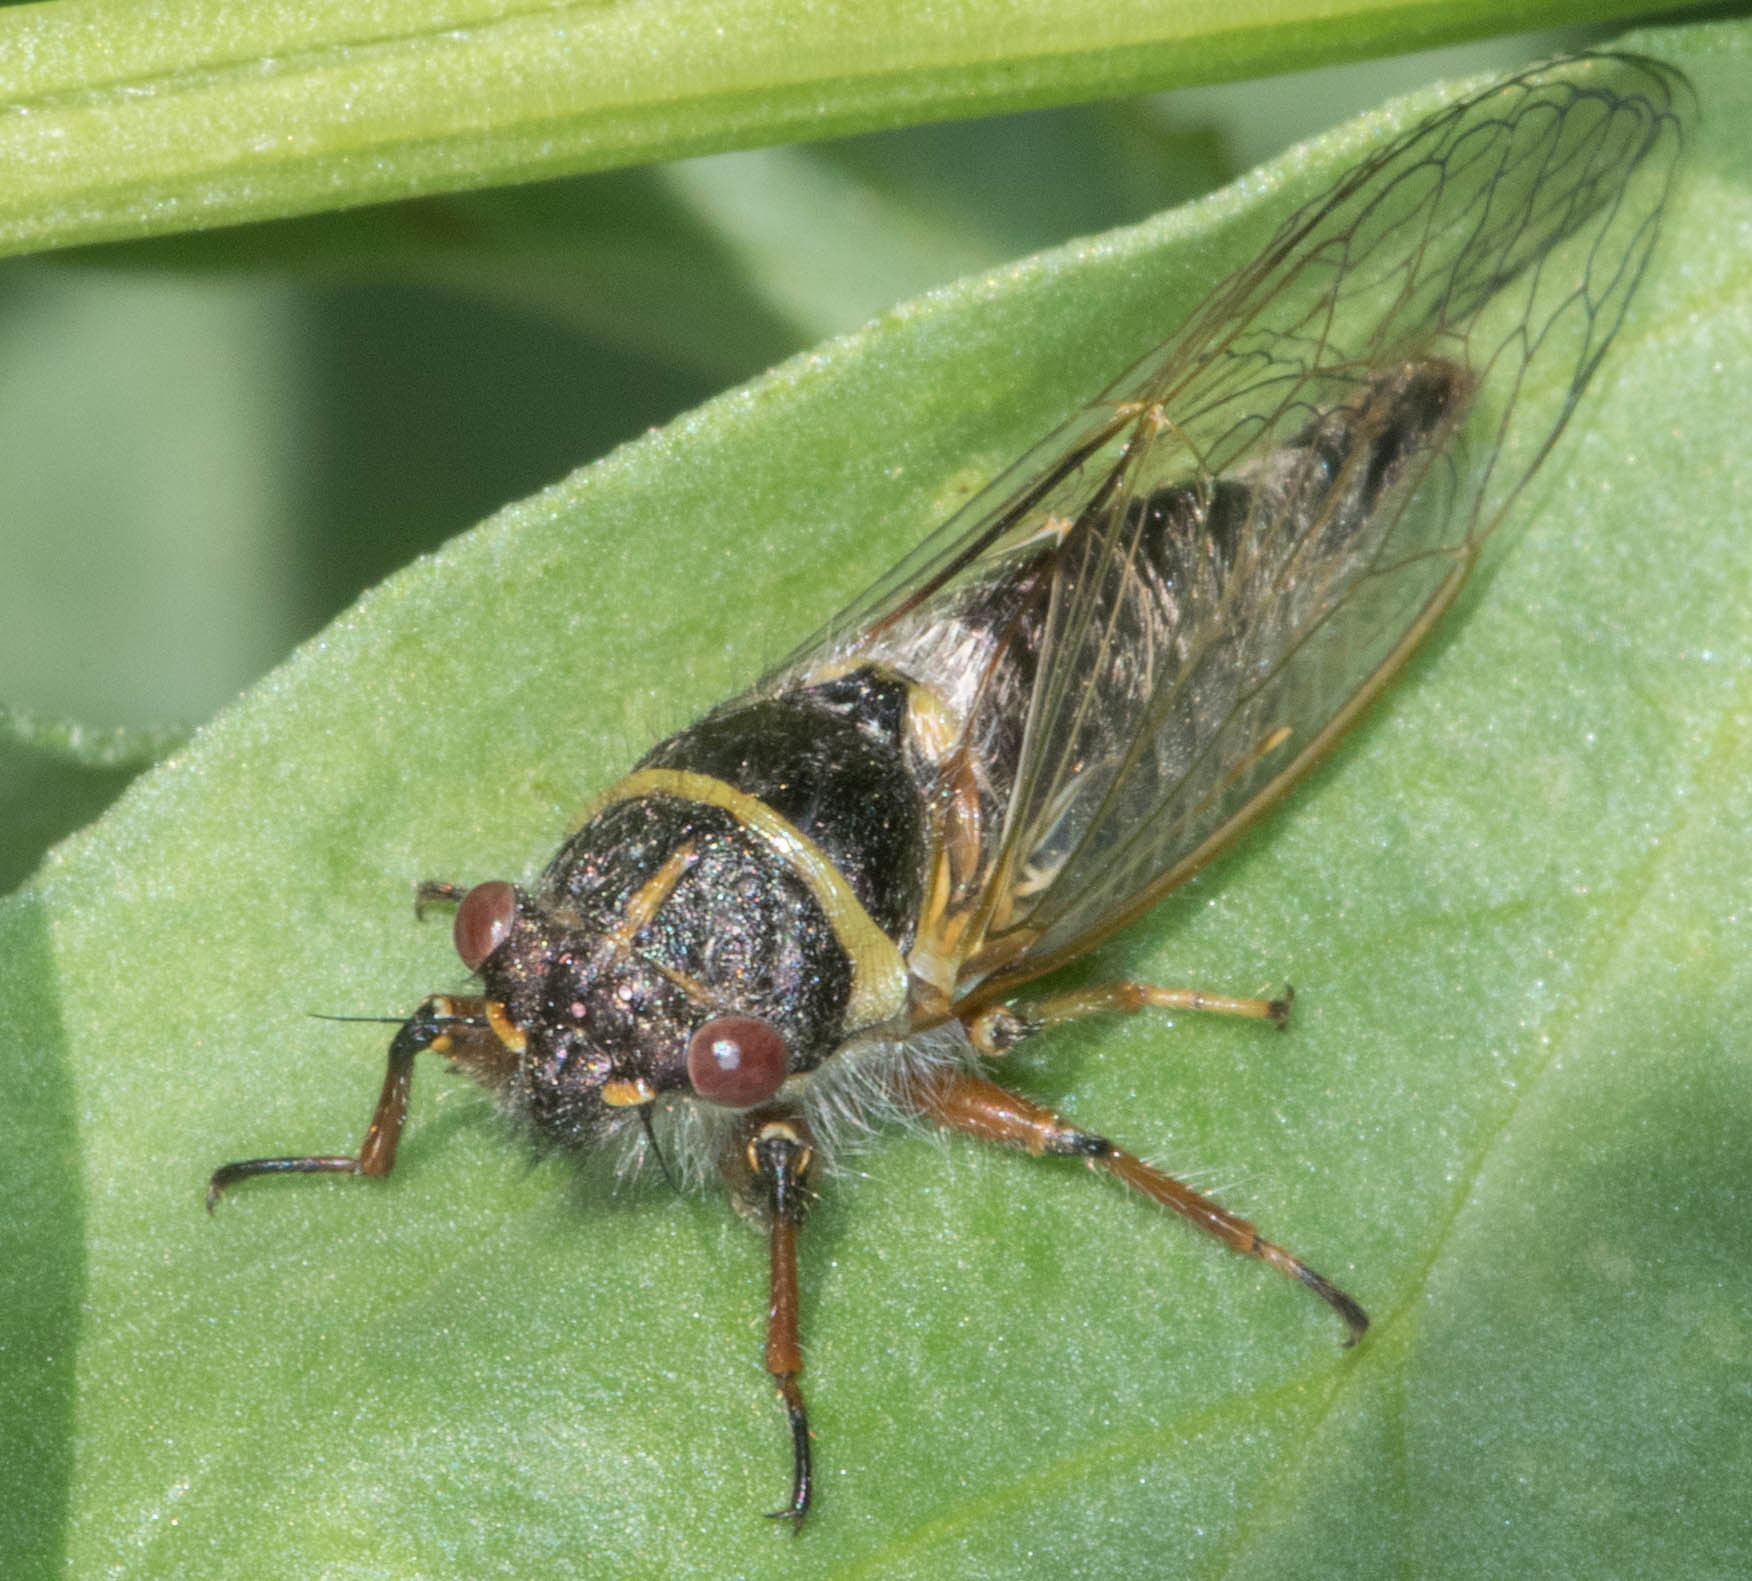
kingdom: Animalia
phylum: Arthropoda
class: Insecta
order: Hemiptera
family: Cicadidae
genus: Platypedia
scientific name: Platypedia areolata
